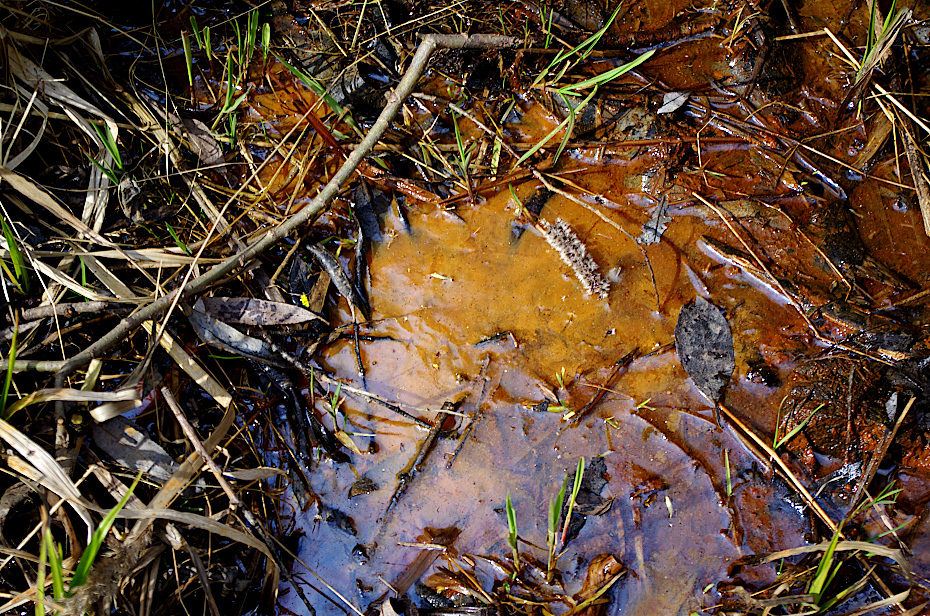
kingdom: Bacteria
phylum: Proteobacteria
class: Gammaproteobacteria
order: Burkholderiales
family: Burkholderiaceae
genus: Leptothrix
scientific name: Leptothrix
